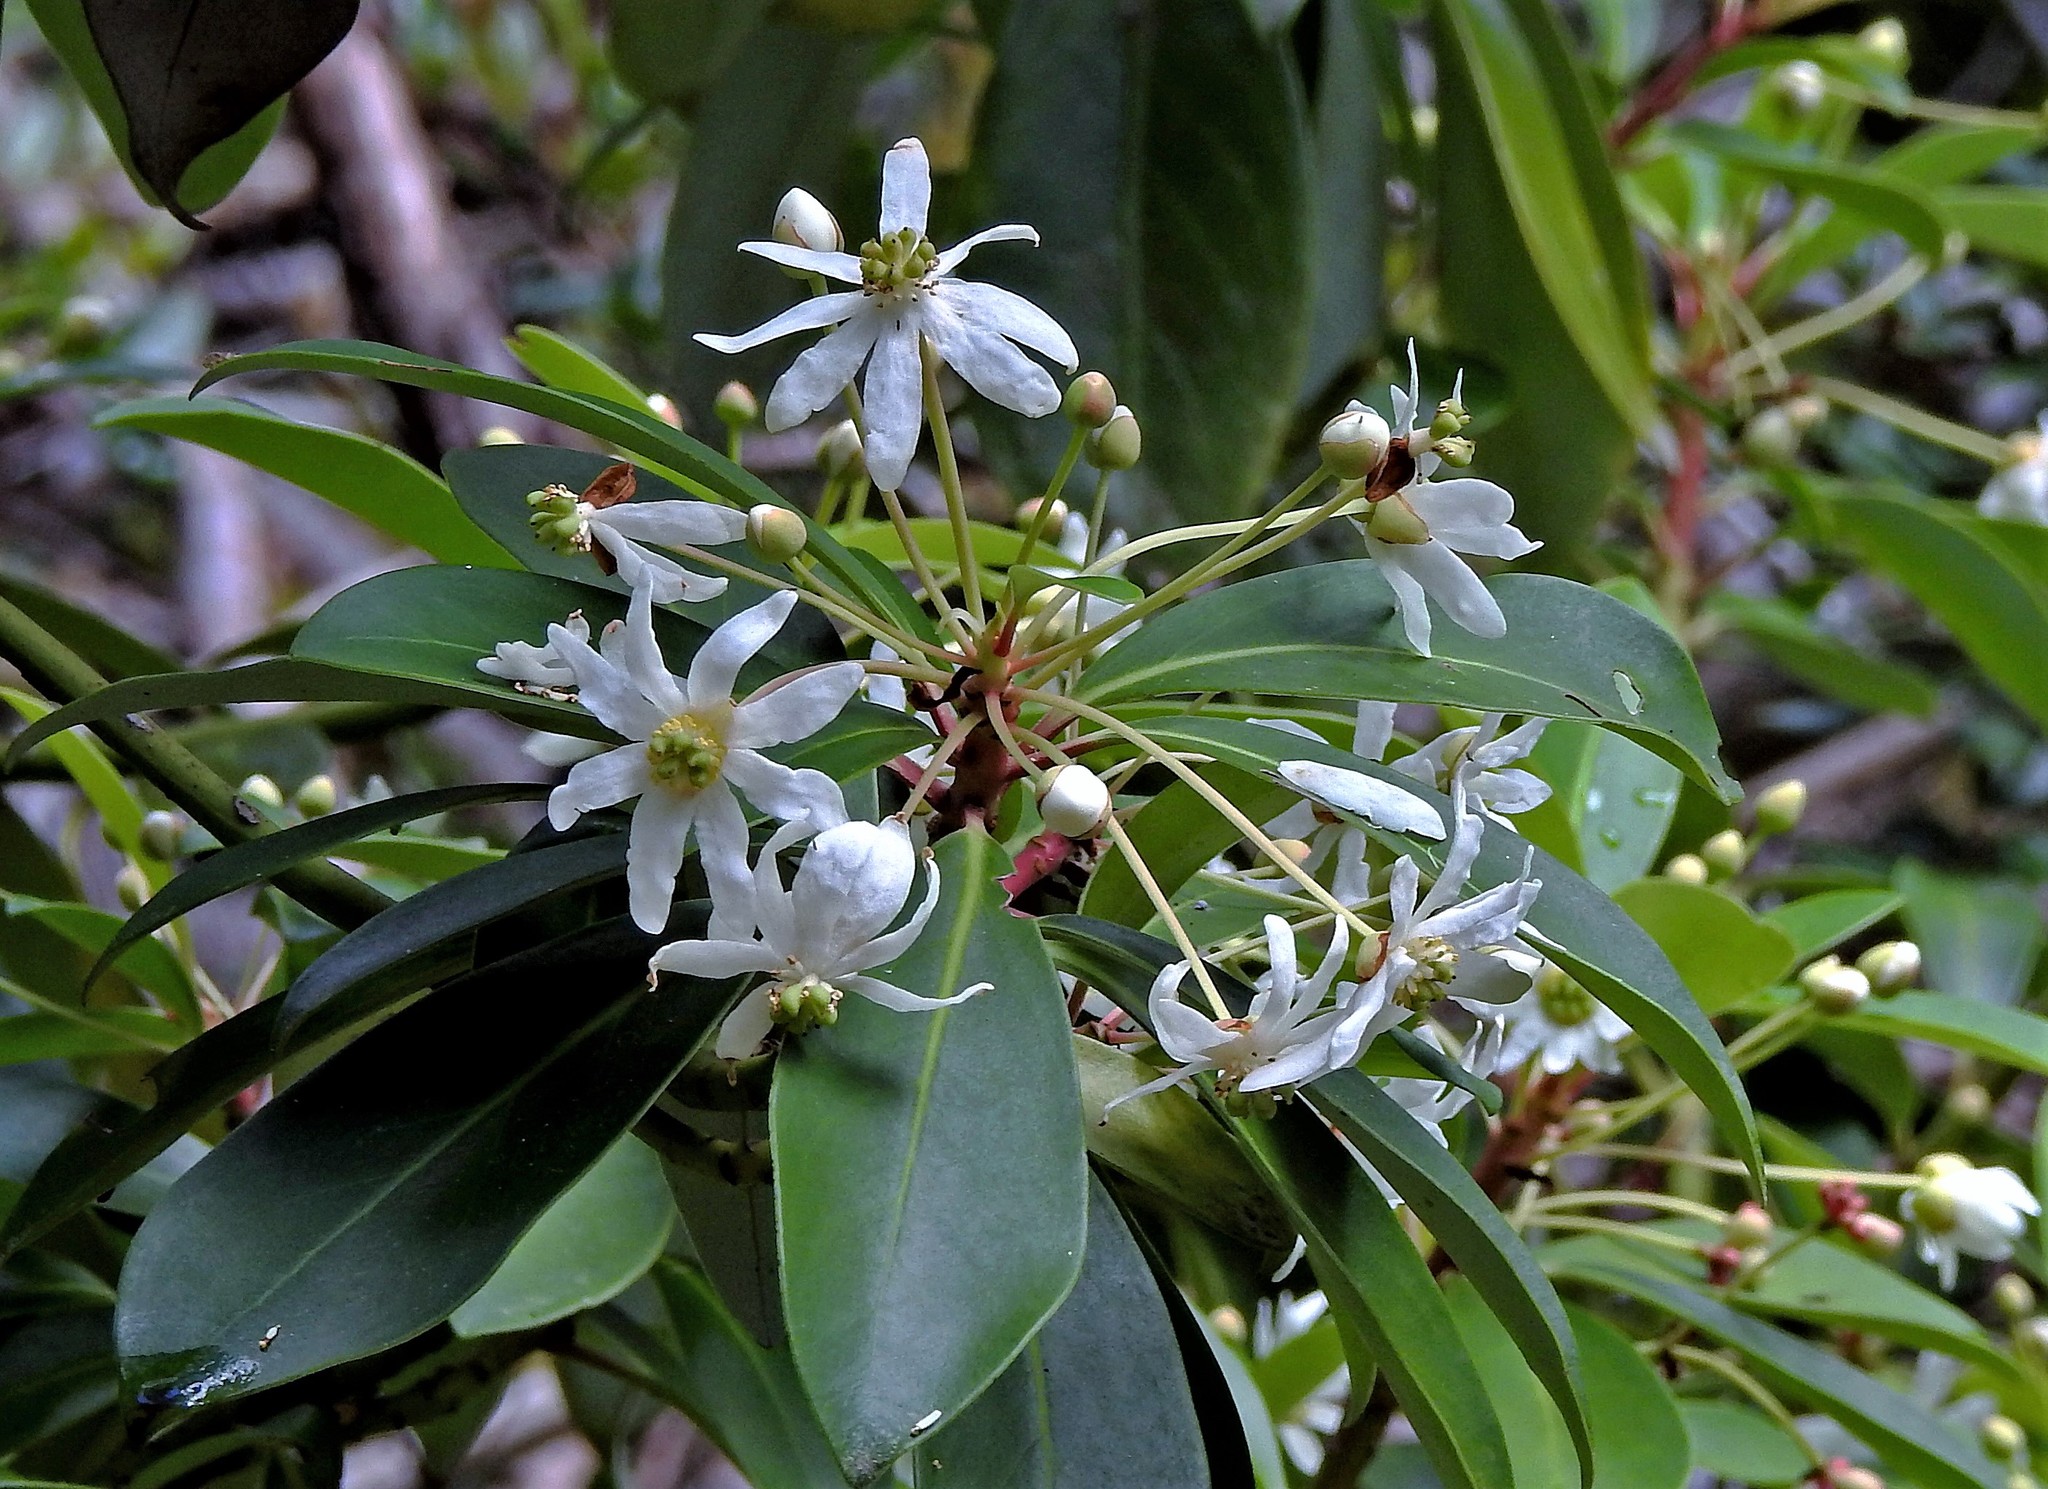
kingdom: Plantae
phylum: Tracheophyta
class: Magnoliopsida
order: Canellales
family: Winteraceae
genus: Drimys
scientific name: Drimys winteri
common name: Winter's-bark
